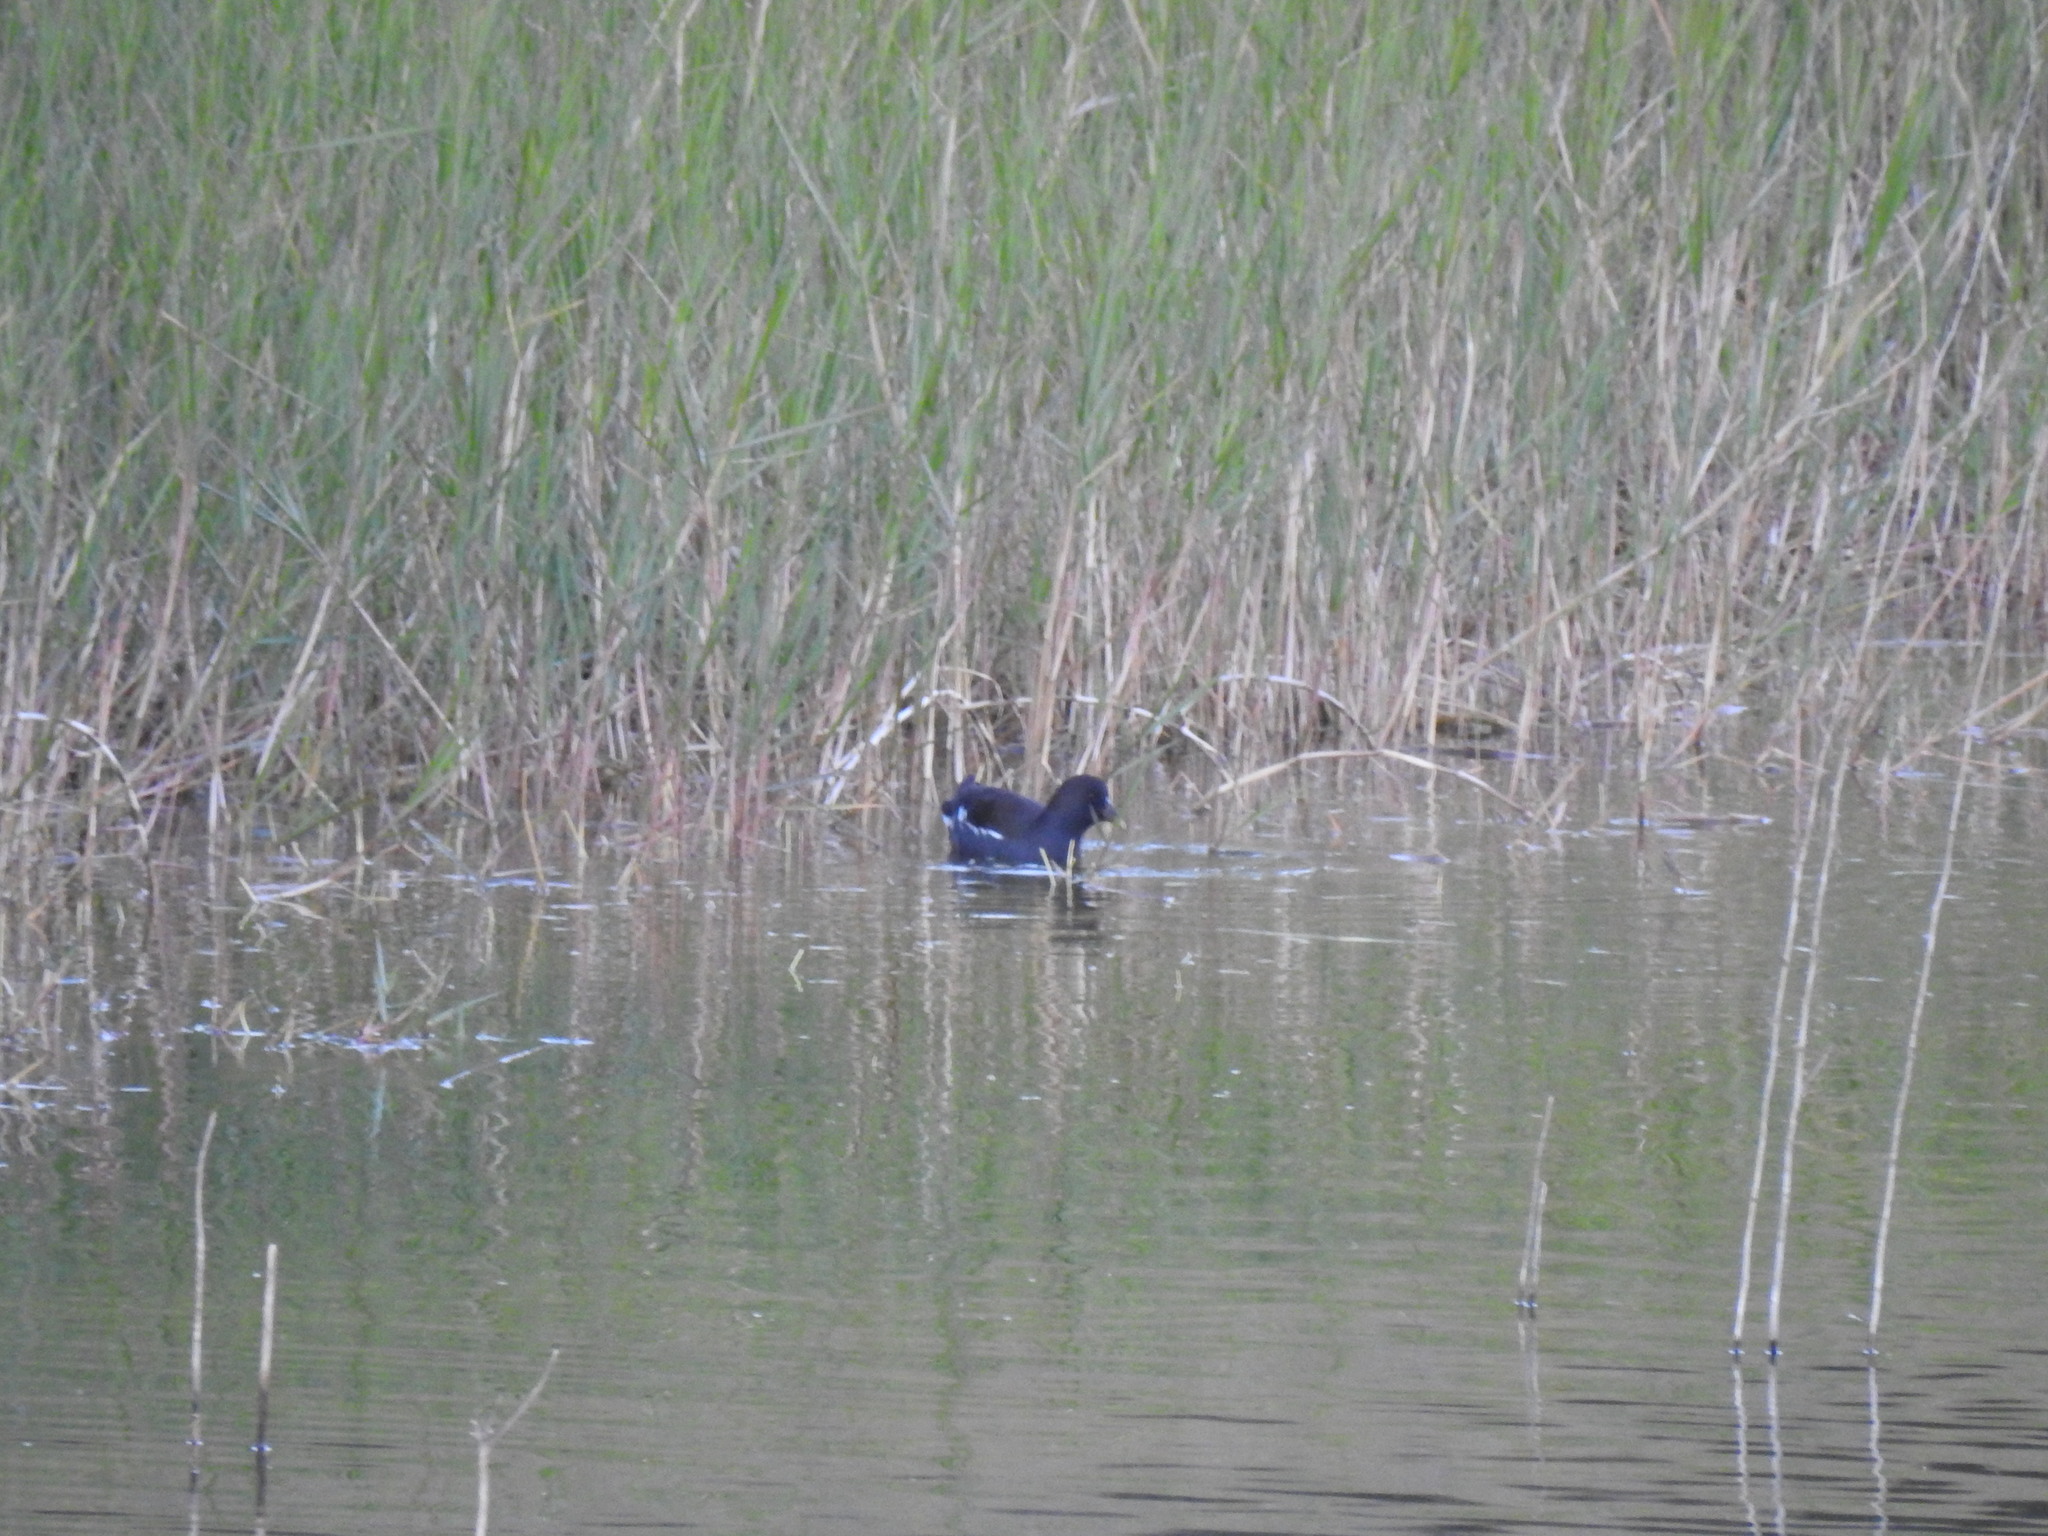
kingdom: Animalia
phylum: Chordata
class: Aves
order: Gruiformes
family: Rallidae
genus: Gallinula
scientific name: Gallinula chloropus
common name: Common moorhen
